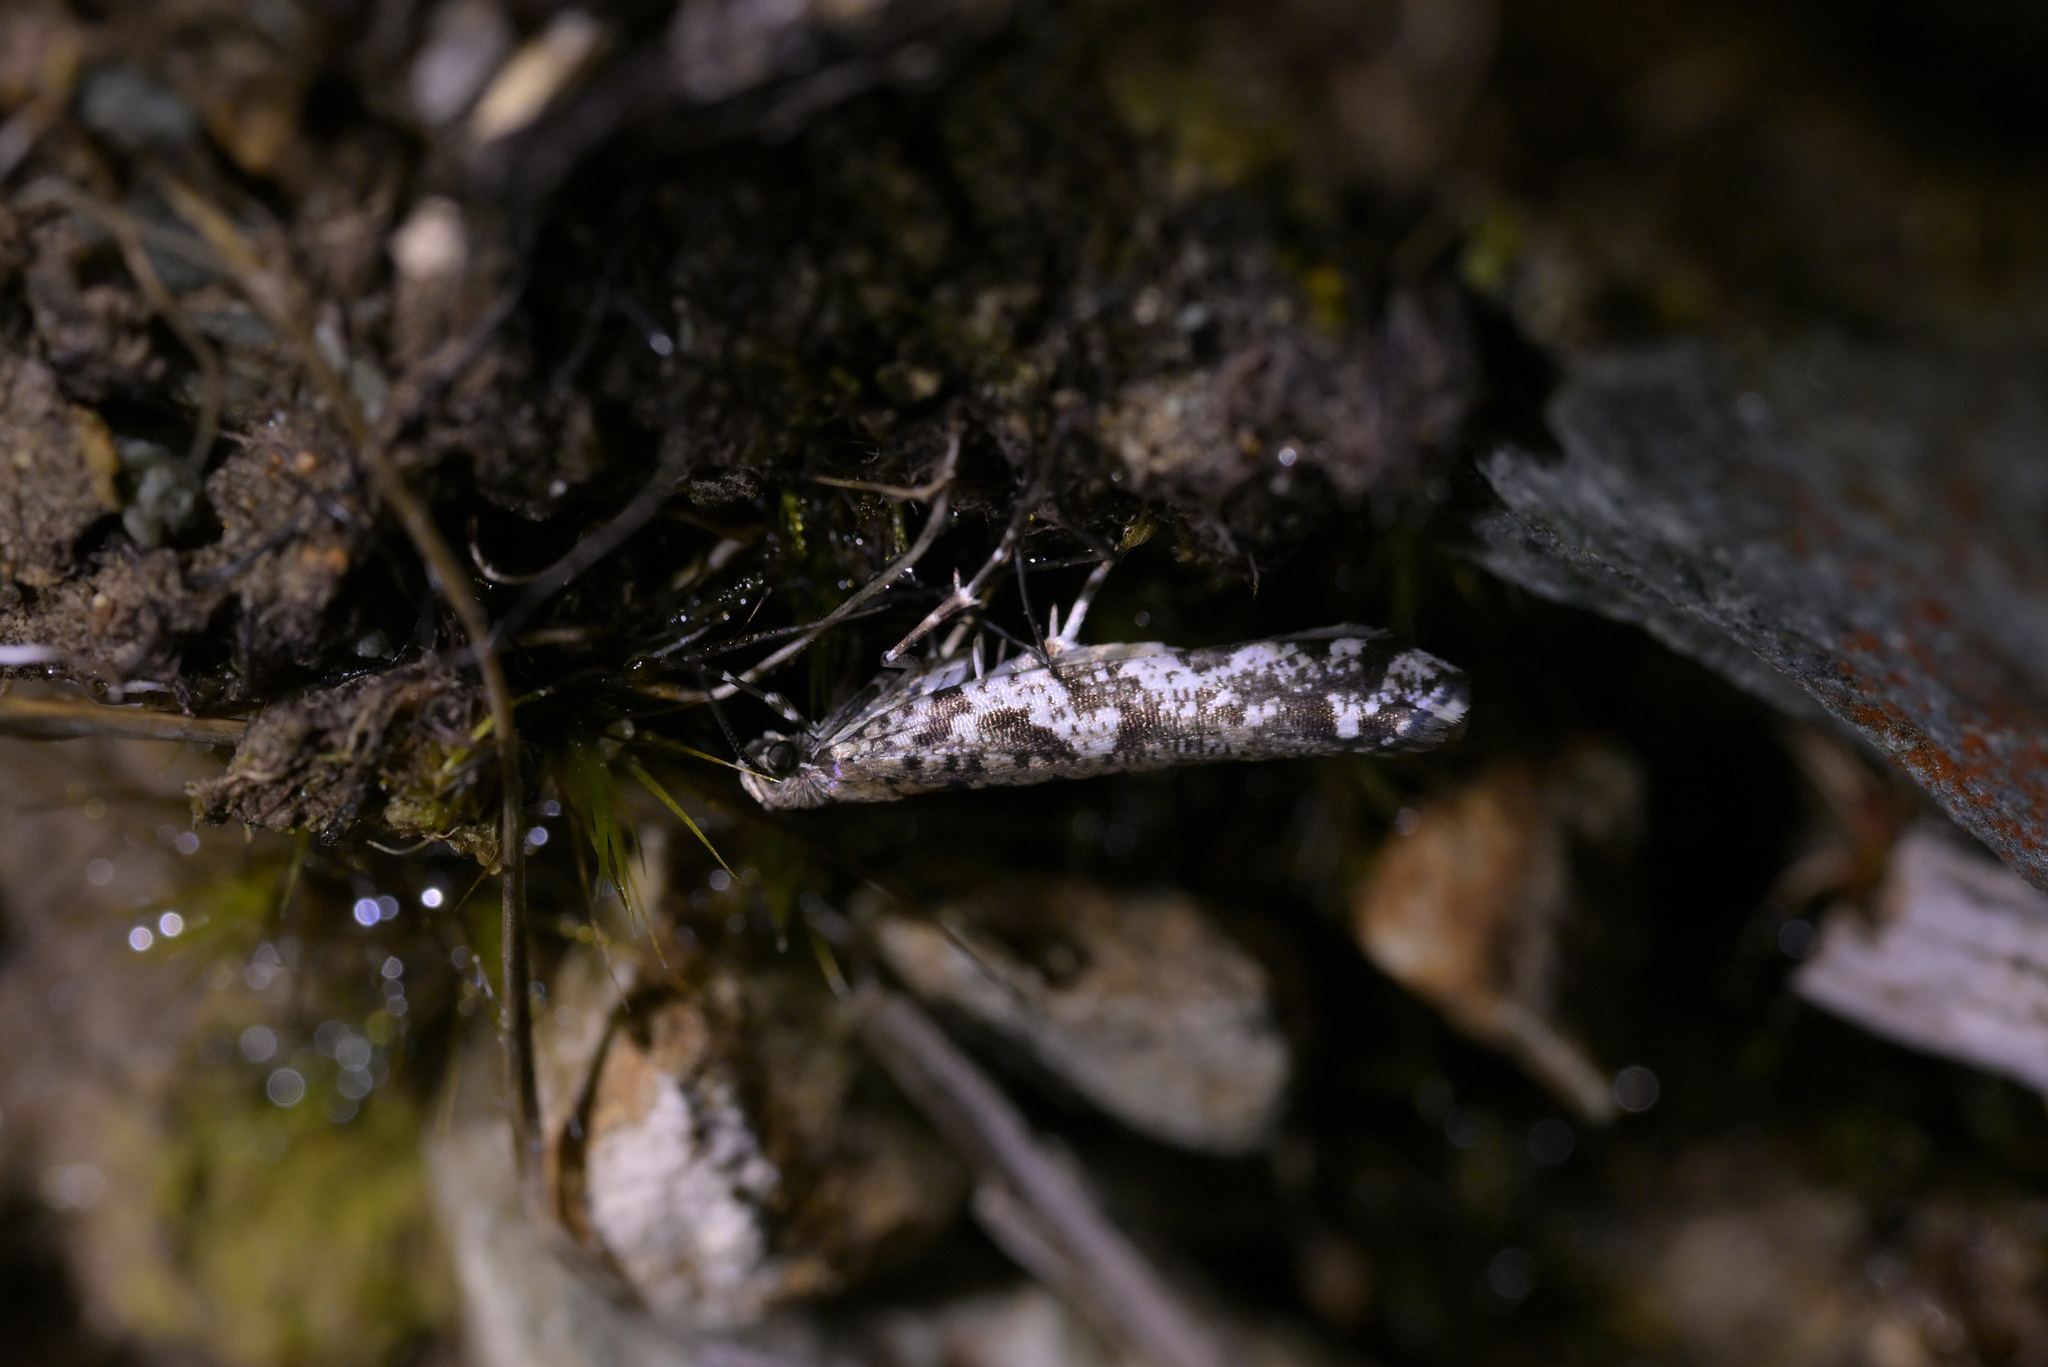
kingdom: Animalia
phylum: Arthropoda
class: Insecta
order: Lepidoptera
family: Glyphipterigidae
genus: Orthenches
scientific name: Orthenches dictyarcha
